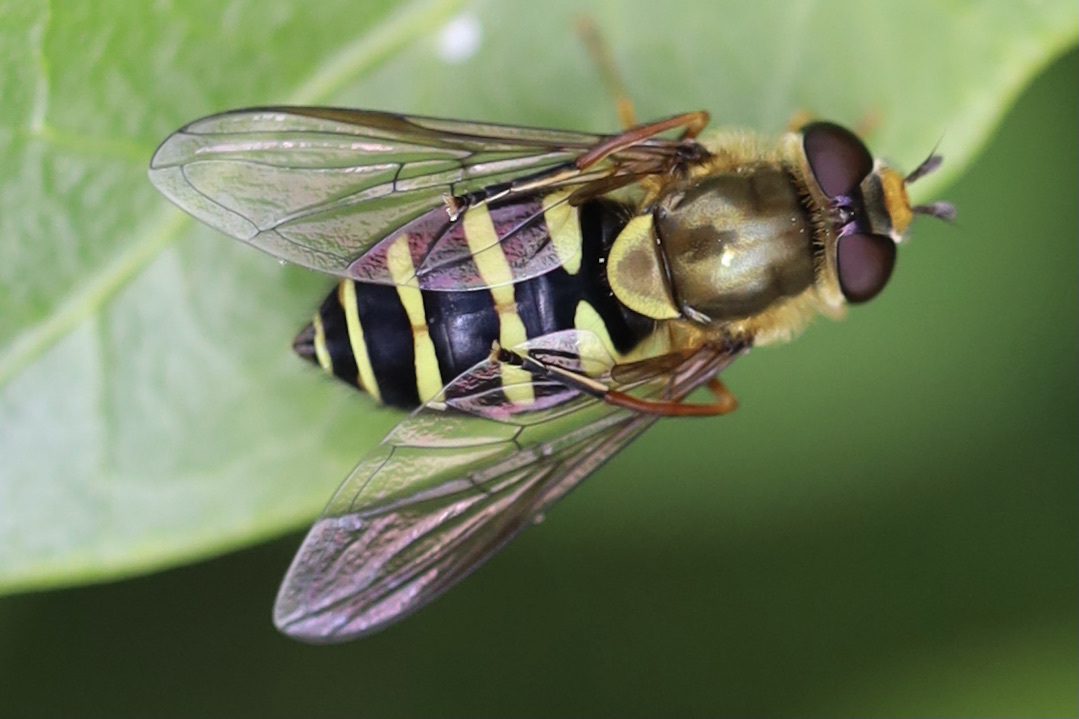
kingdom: Animalia
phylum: Arthropoda
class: Insecta
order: Diptera
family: Syrphidae
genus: Syrphus
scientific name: Syrphus opinator
